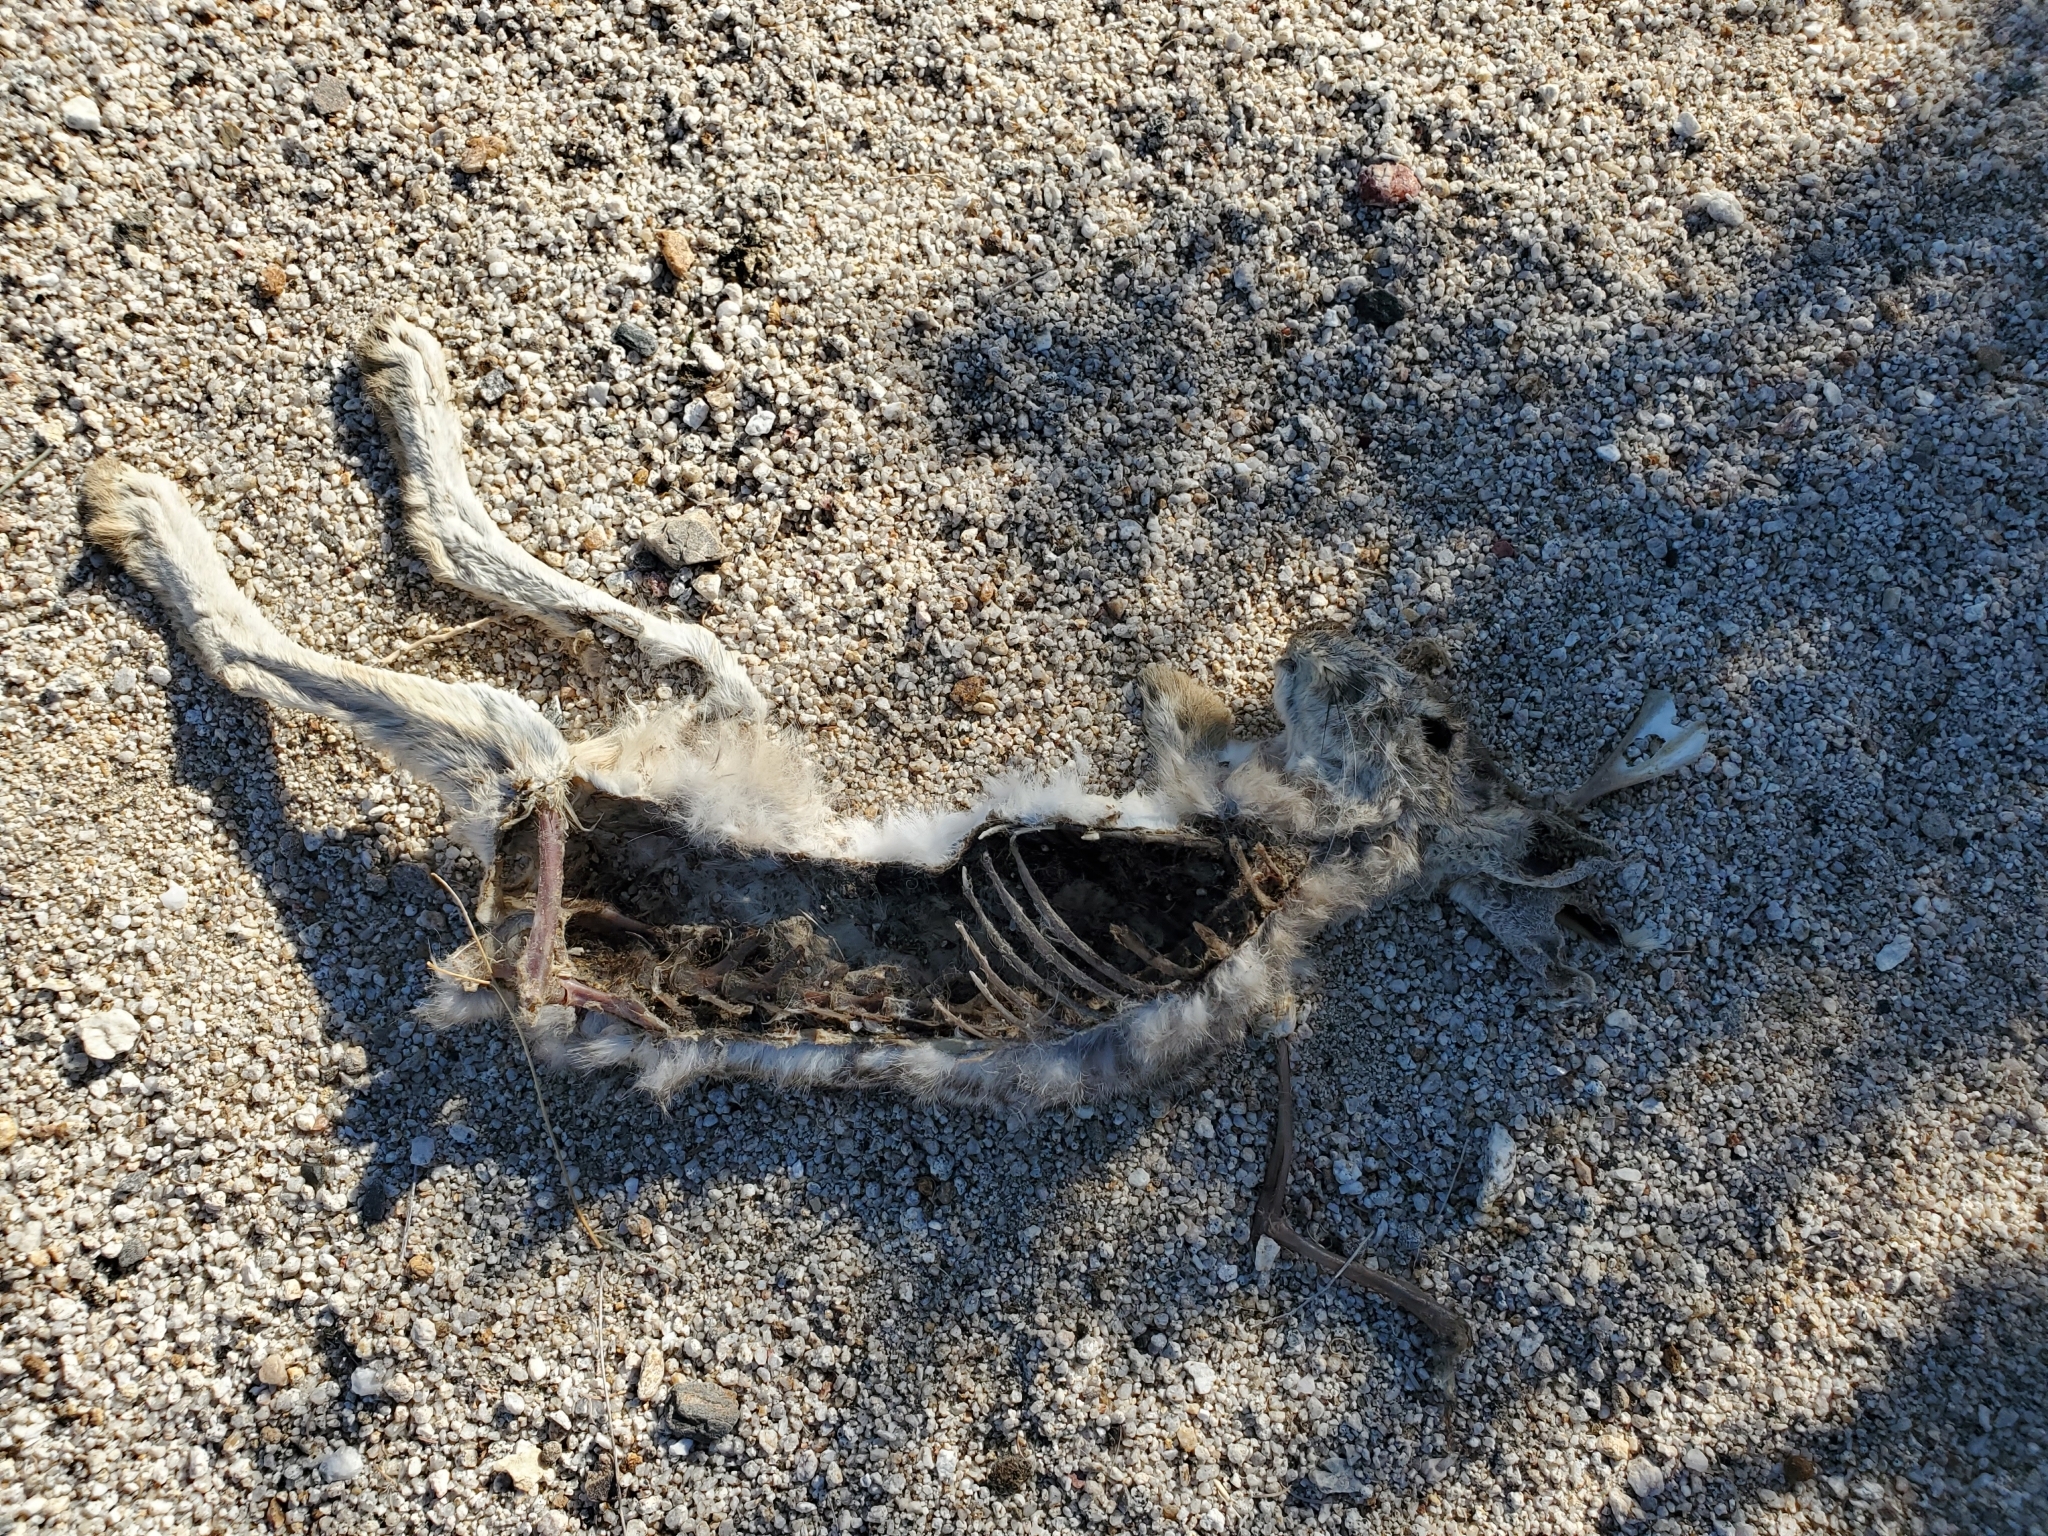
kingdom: Animalia
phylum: Chordata
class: Mammalia
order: Lagomorpha
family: Leporidae
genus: Lepus
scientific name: Lepus californicus
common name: Black-tailed jackrabbit
